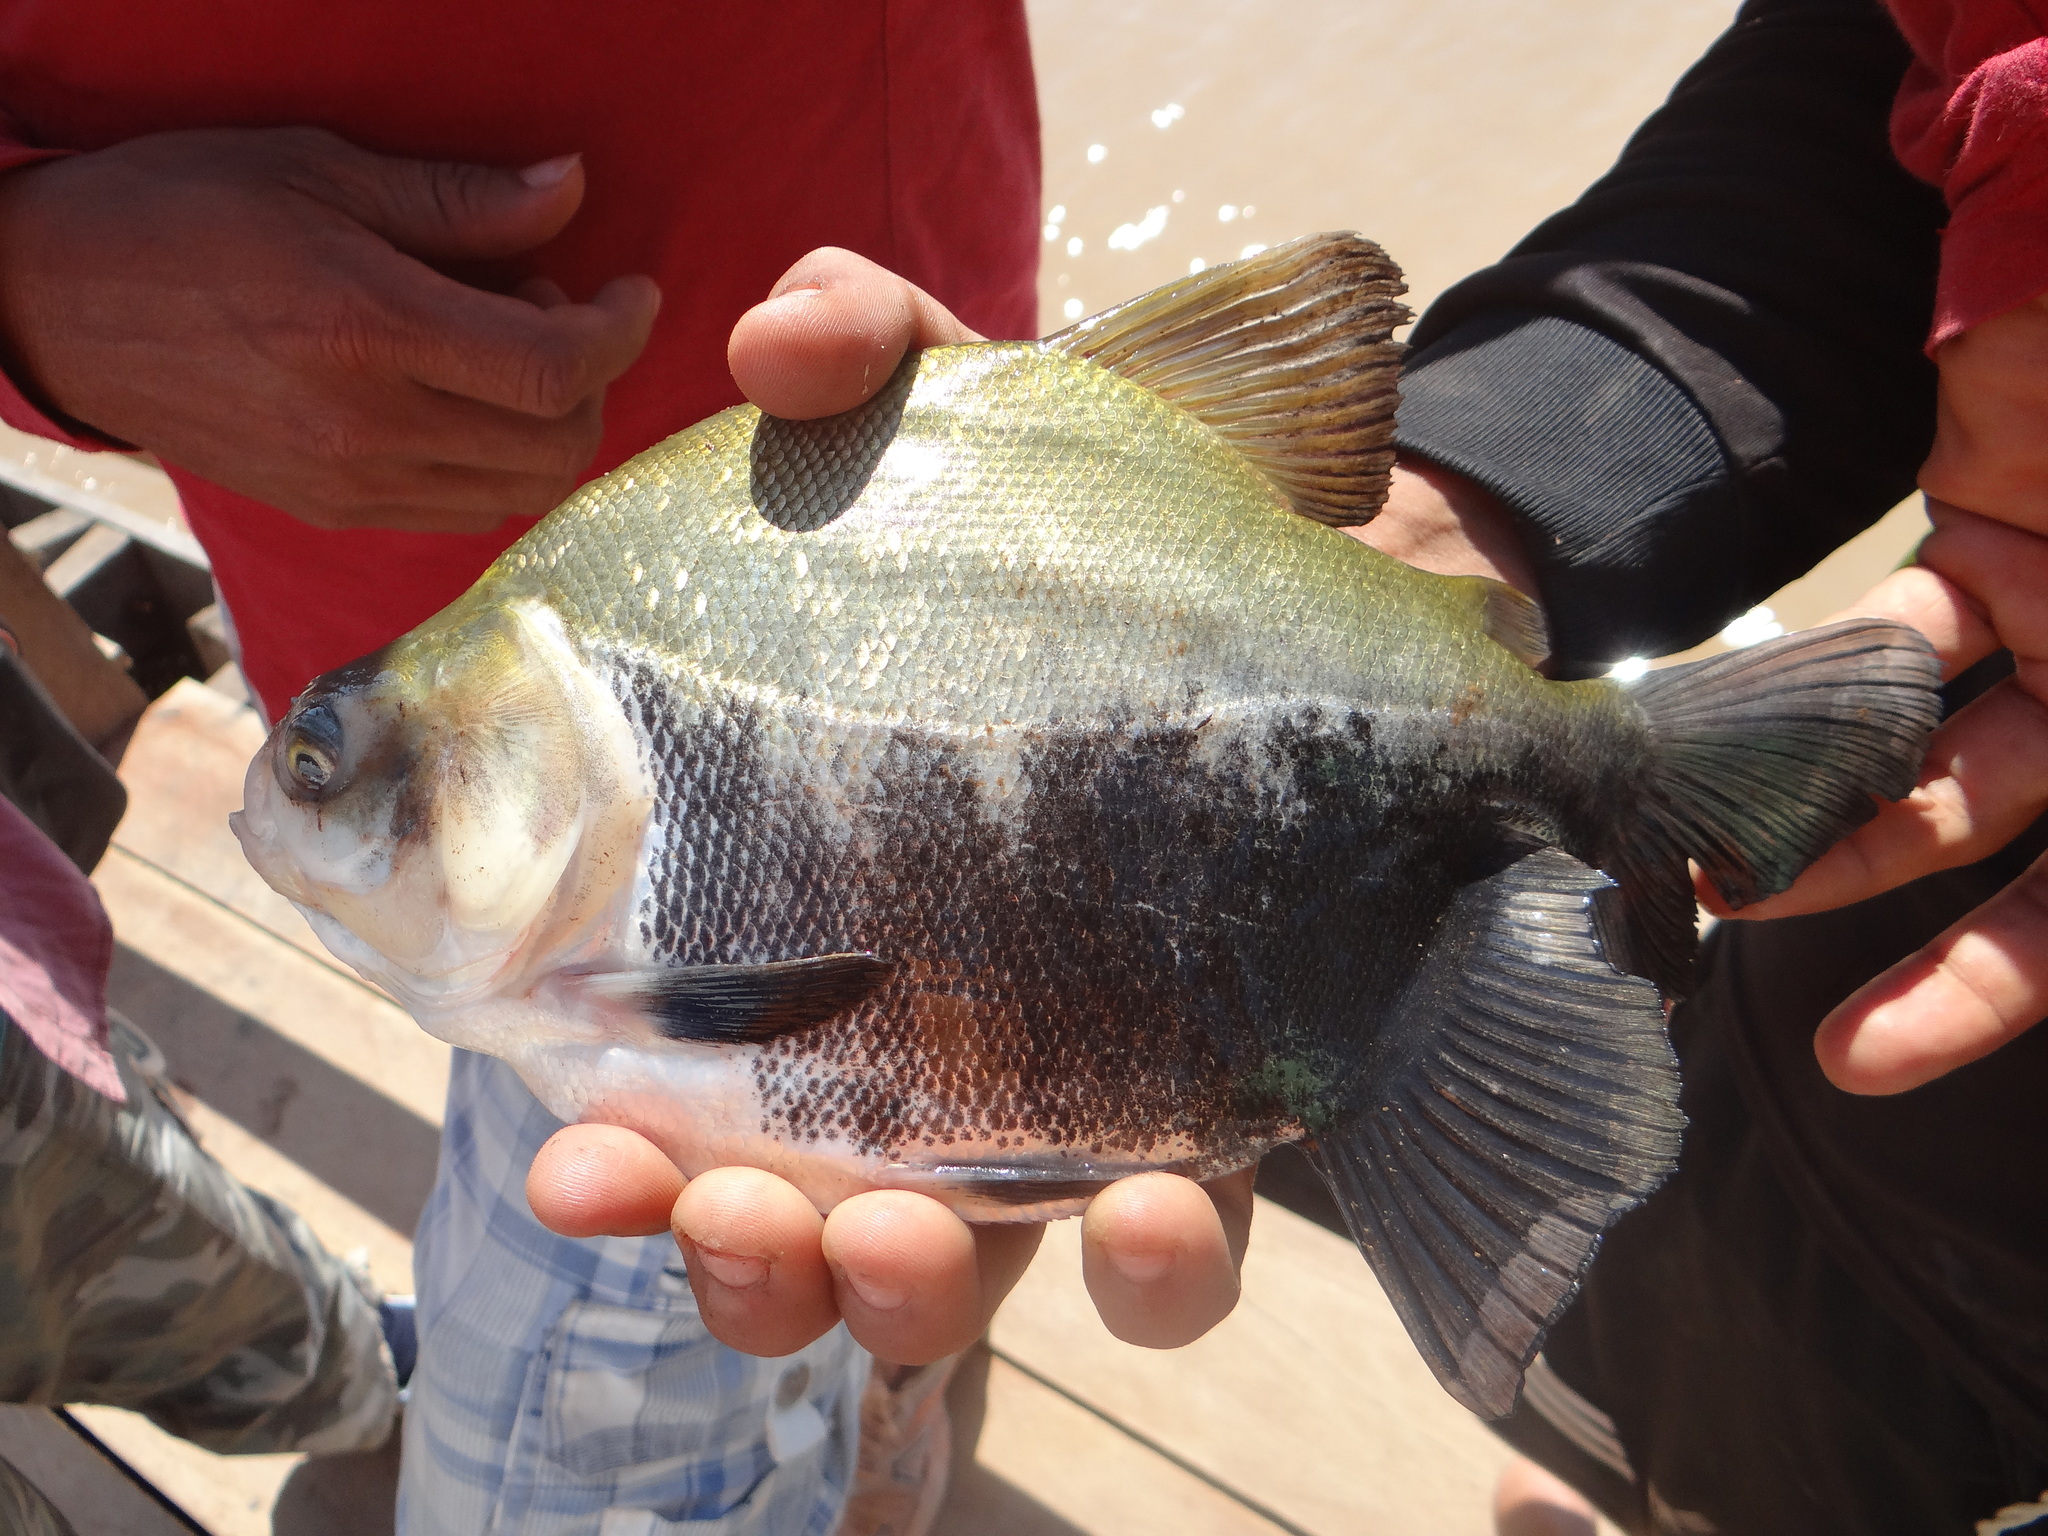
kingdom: Animalia
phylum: Chordata
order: Characiformes
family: Serrasalmidae
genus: Colossoma
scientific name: Colossoma macropomum
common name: Blackfin pacu
